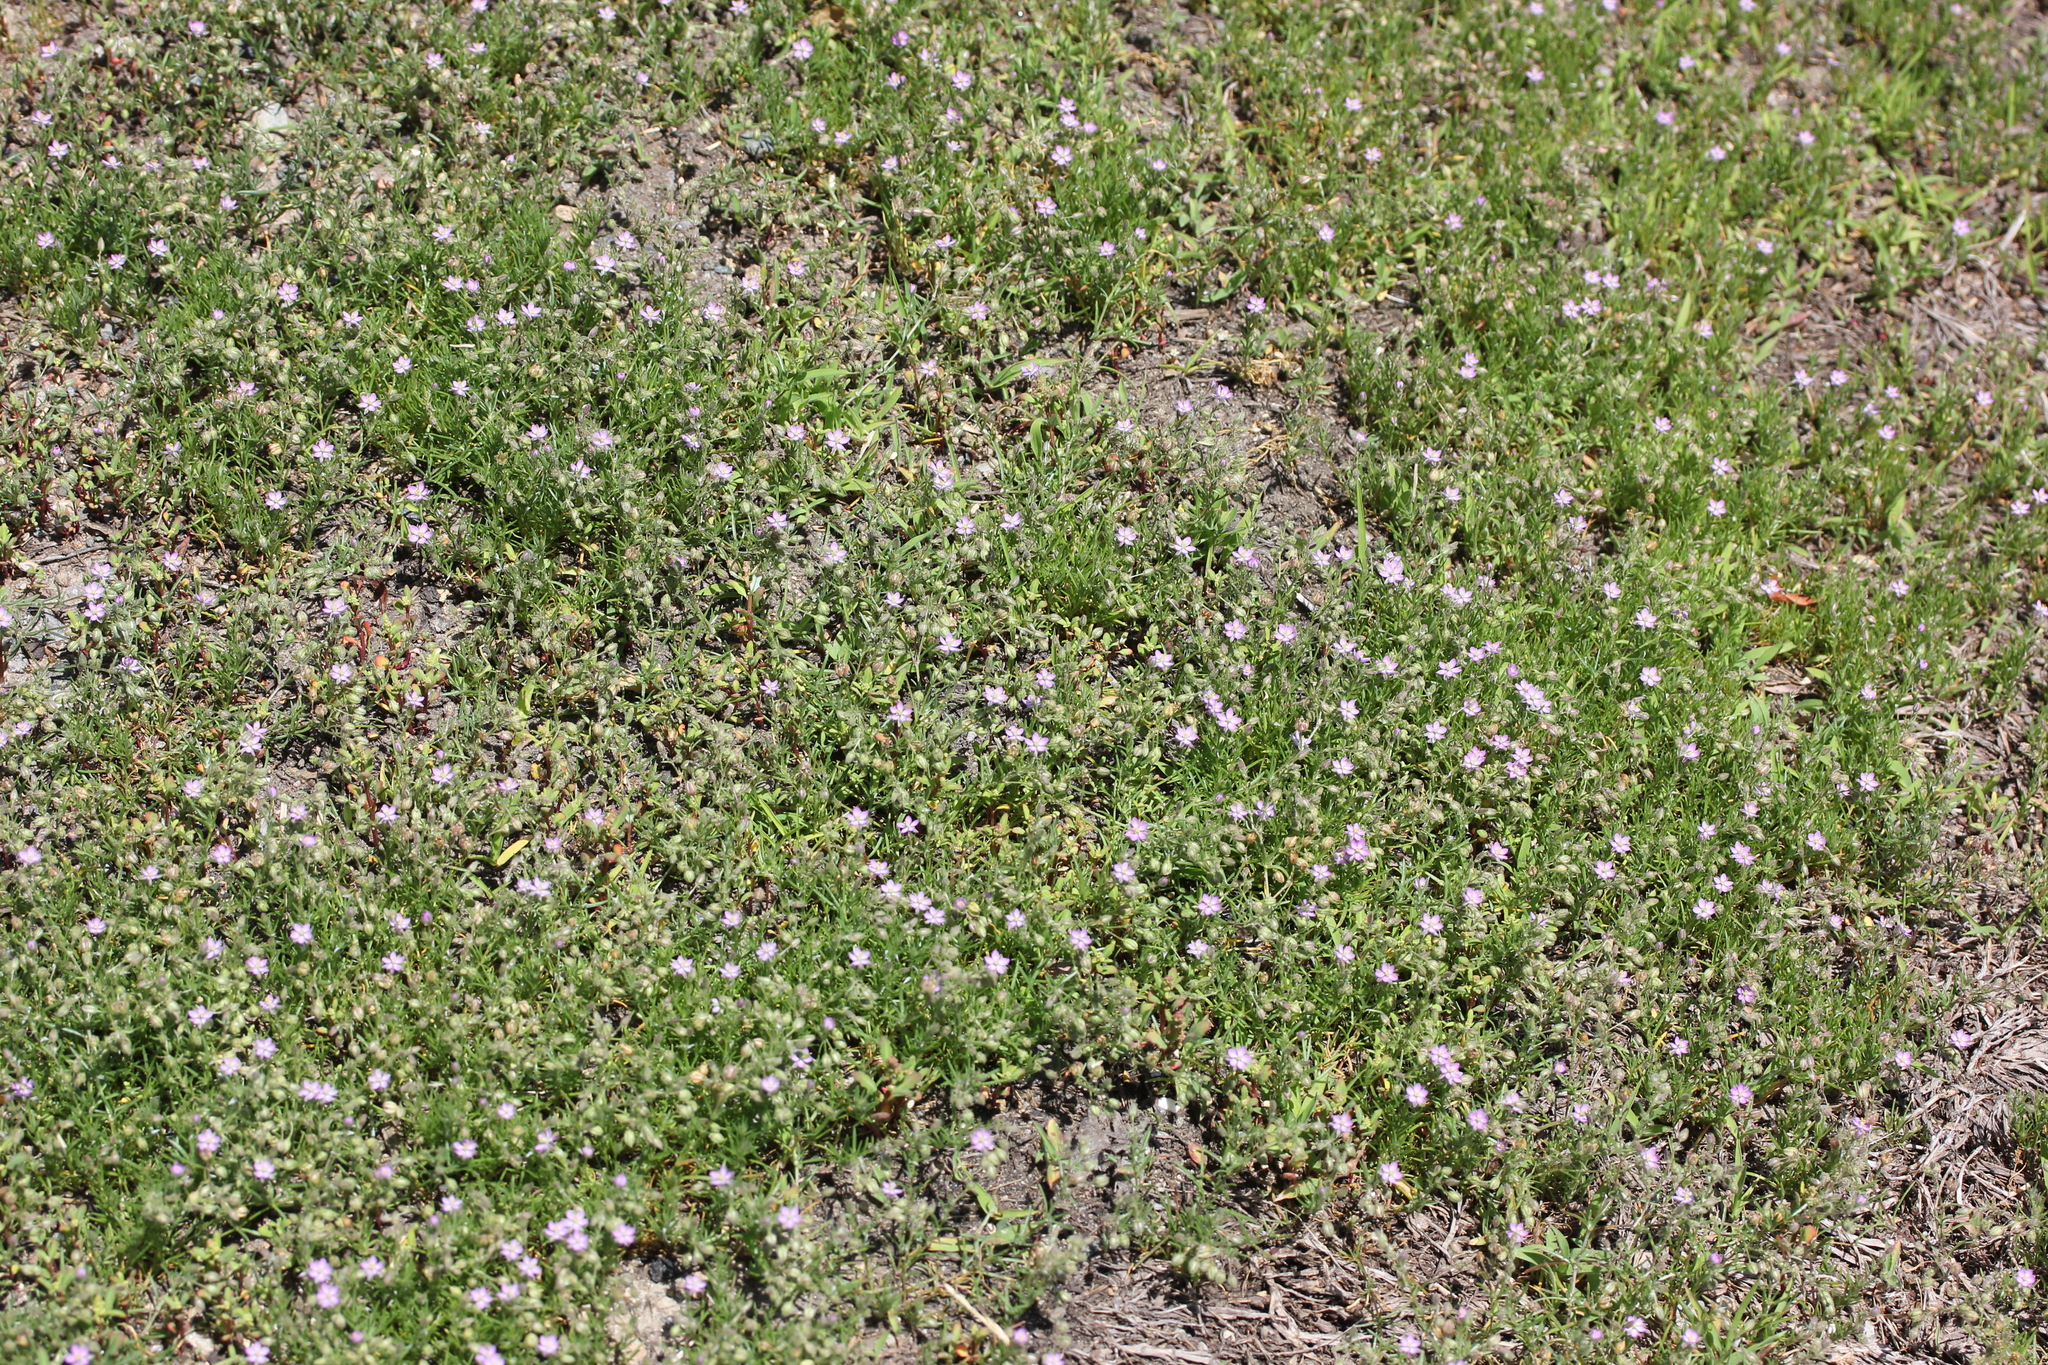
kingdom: Plantae
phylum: Tracheophyta
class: Magnoliopsida
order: Caryophyllales
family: Caryophyllaceae
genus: Spergularia
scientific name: Spergularia rubra
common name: Red sand-spurrey
